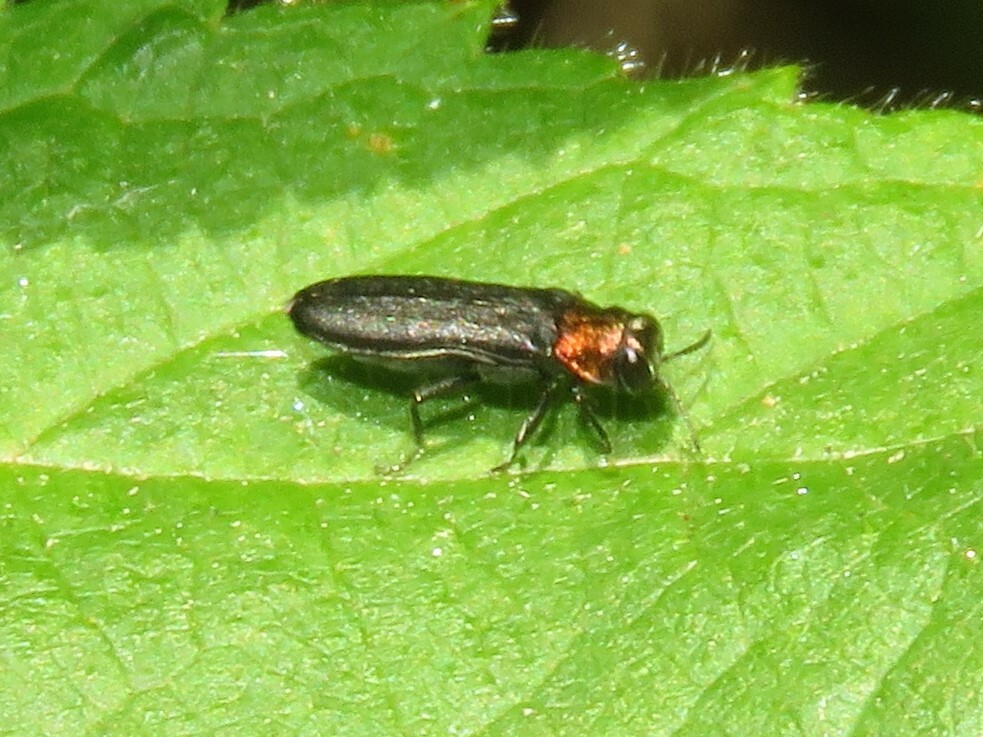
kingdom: Animalia
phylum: Arthropoda
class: Insecta
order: Coleoptera
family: Buprestidae
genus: Agrilus
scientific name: Agrilus ruficollis
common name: Red-necked cane borer beetle
